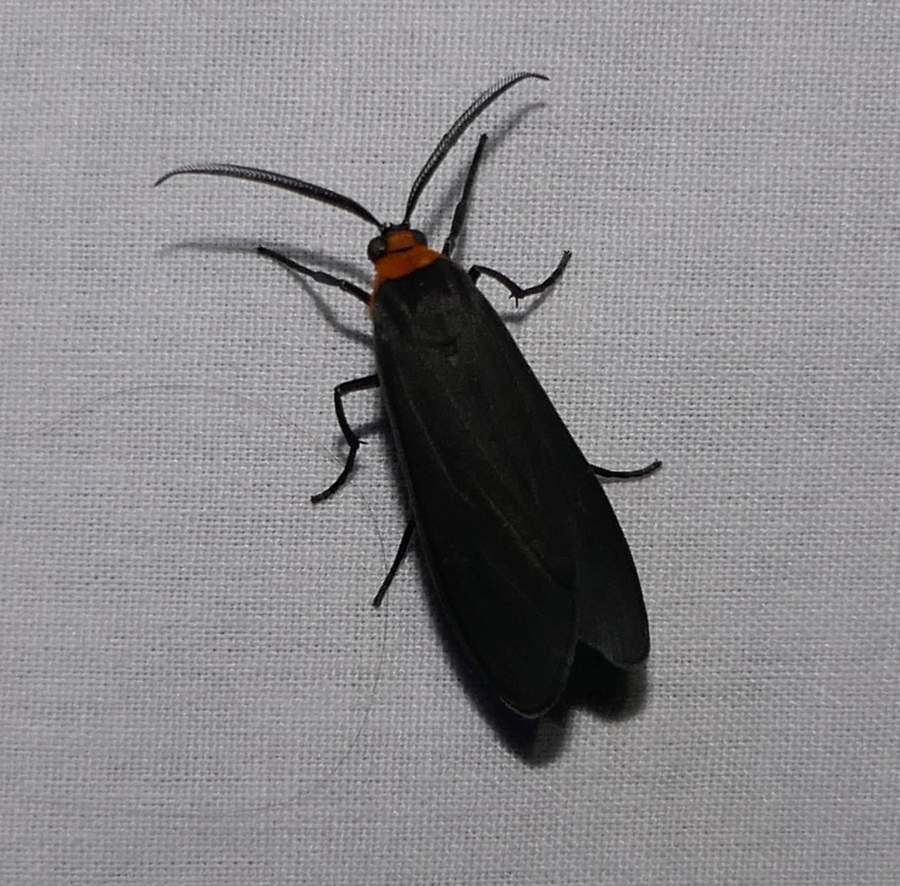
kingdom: Animalia
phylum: Arthropoda
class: Insecta
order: Lepidoptera
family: Erebidae
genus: Cisseps
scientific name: Cisseps fulvicollis
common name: Yellow-collared scape moth
